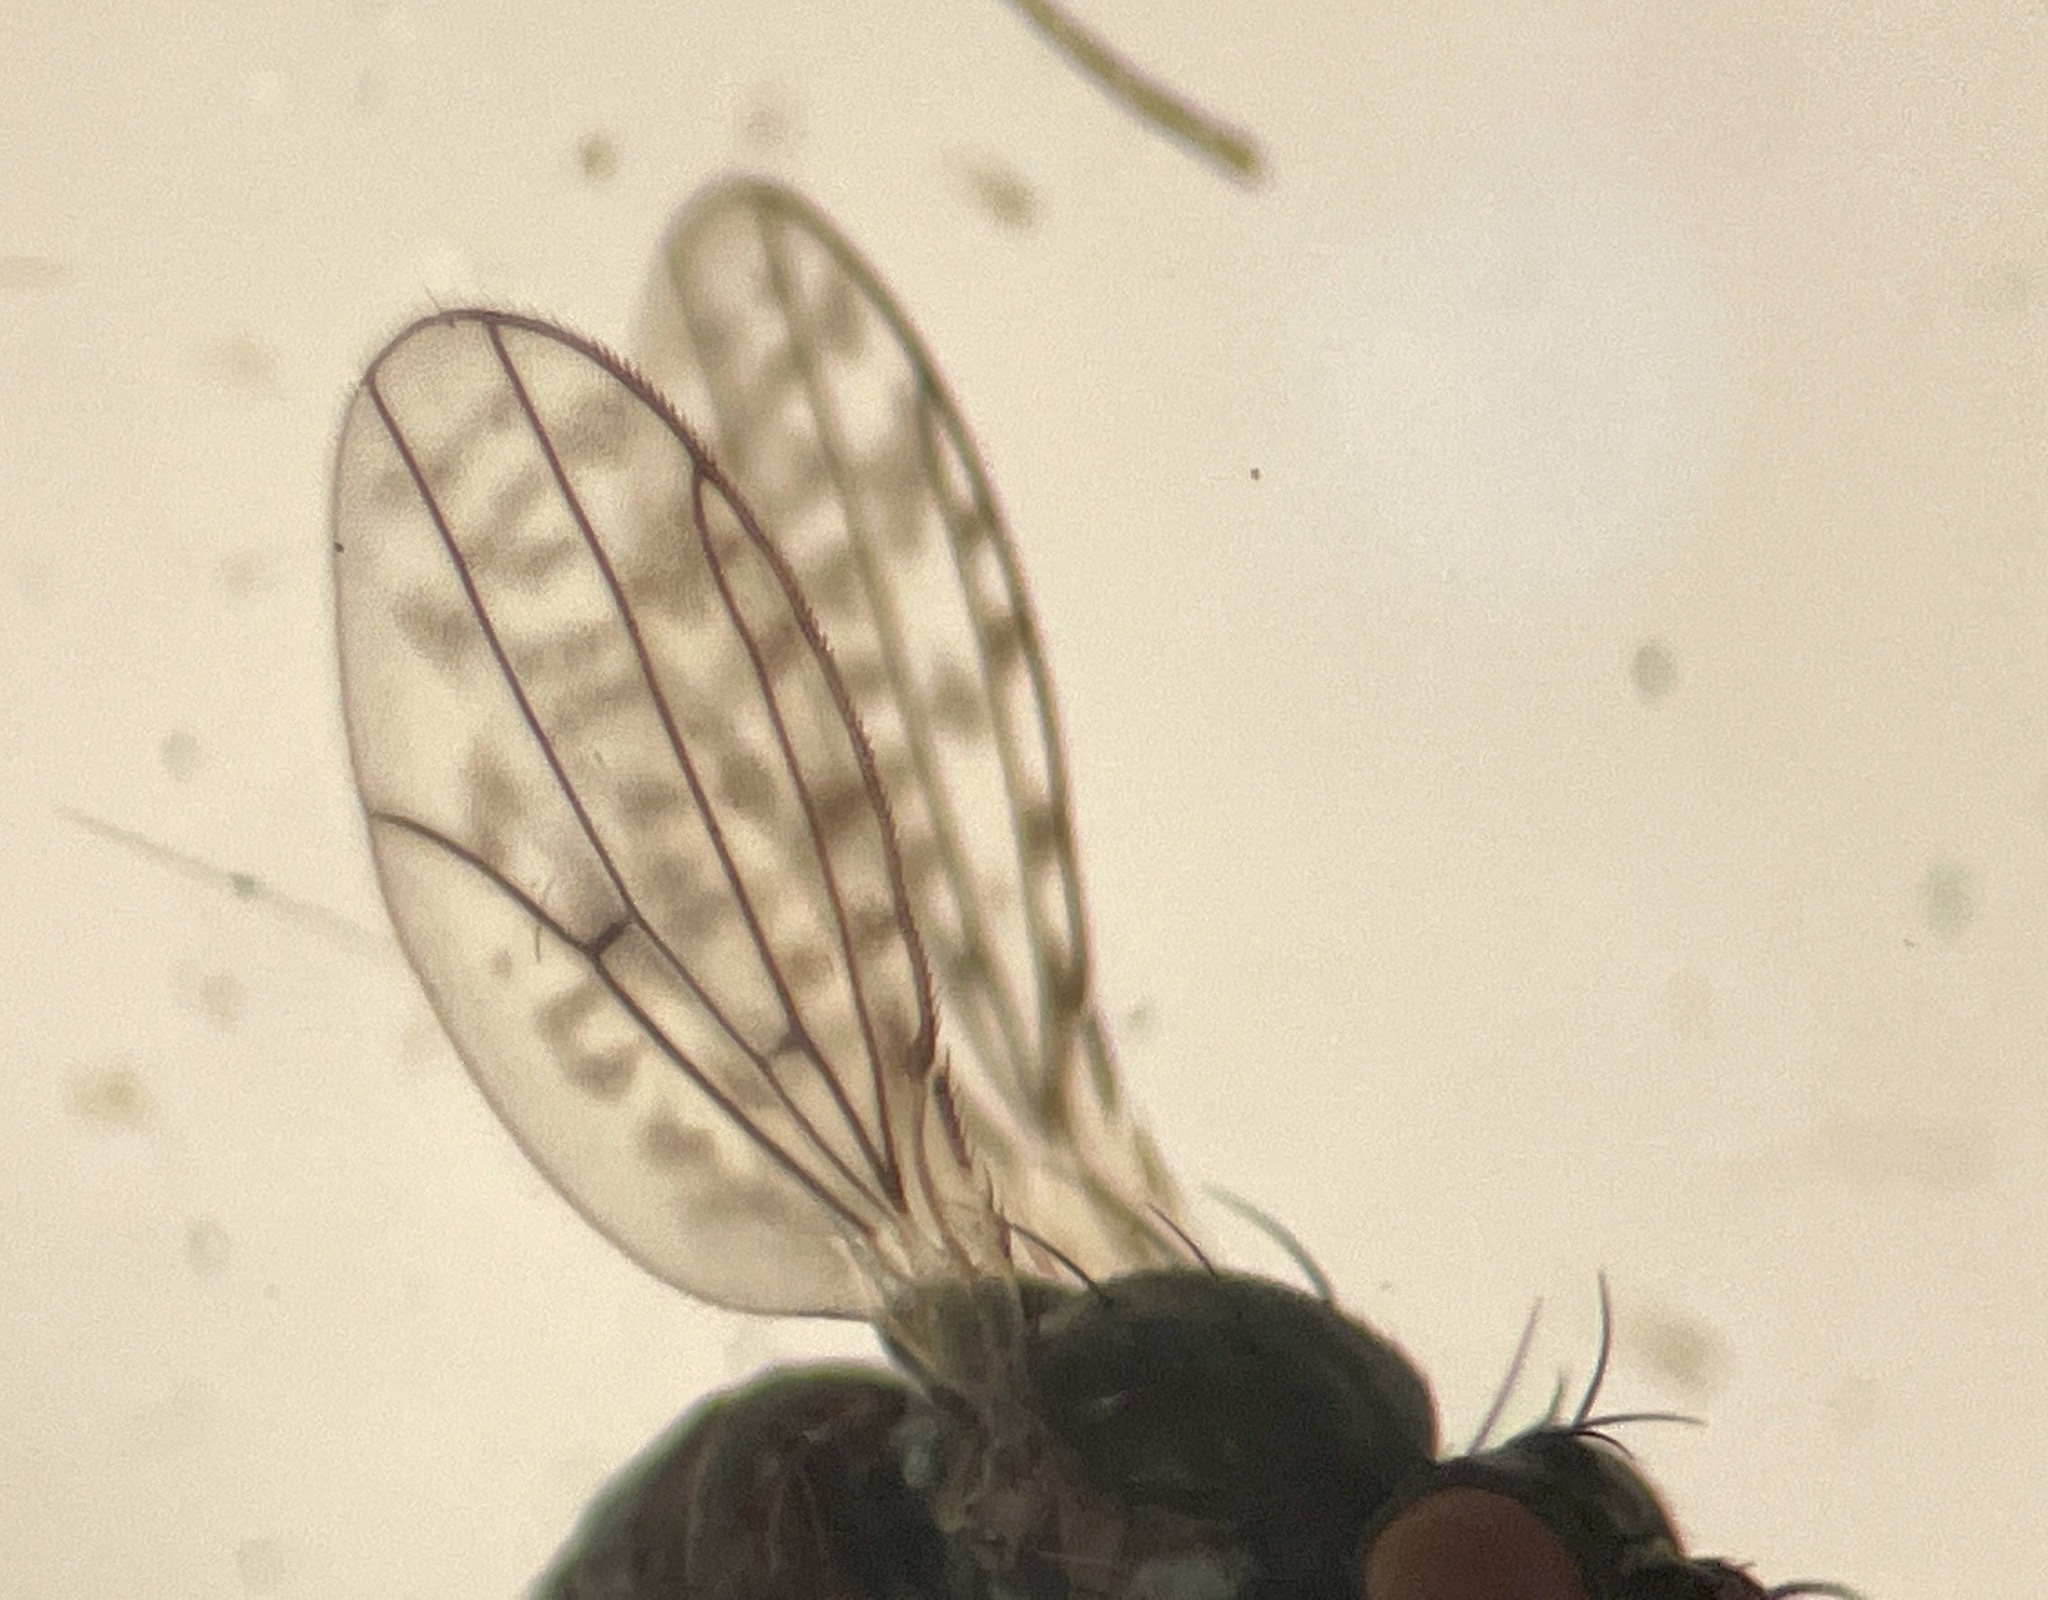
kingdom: Animalia
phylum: Arthropoda
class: Insecta
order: Diptera
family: Ephydridae
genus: Nostima
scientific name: Nostima duoseta
